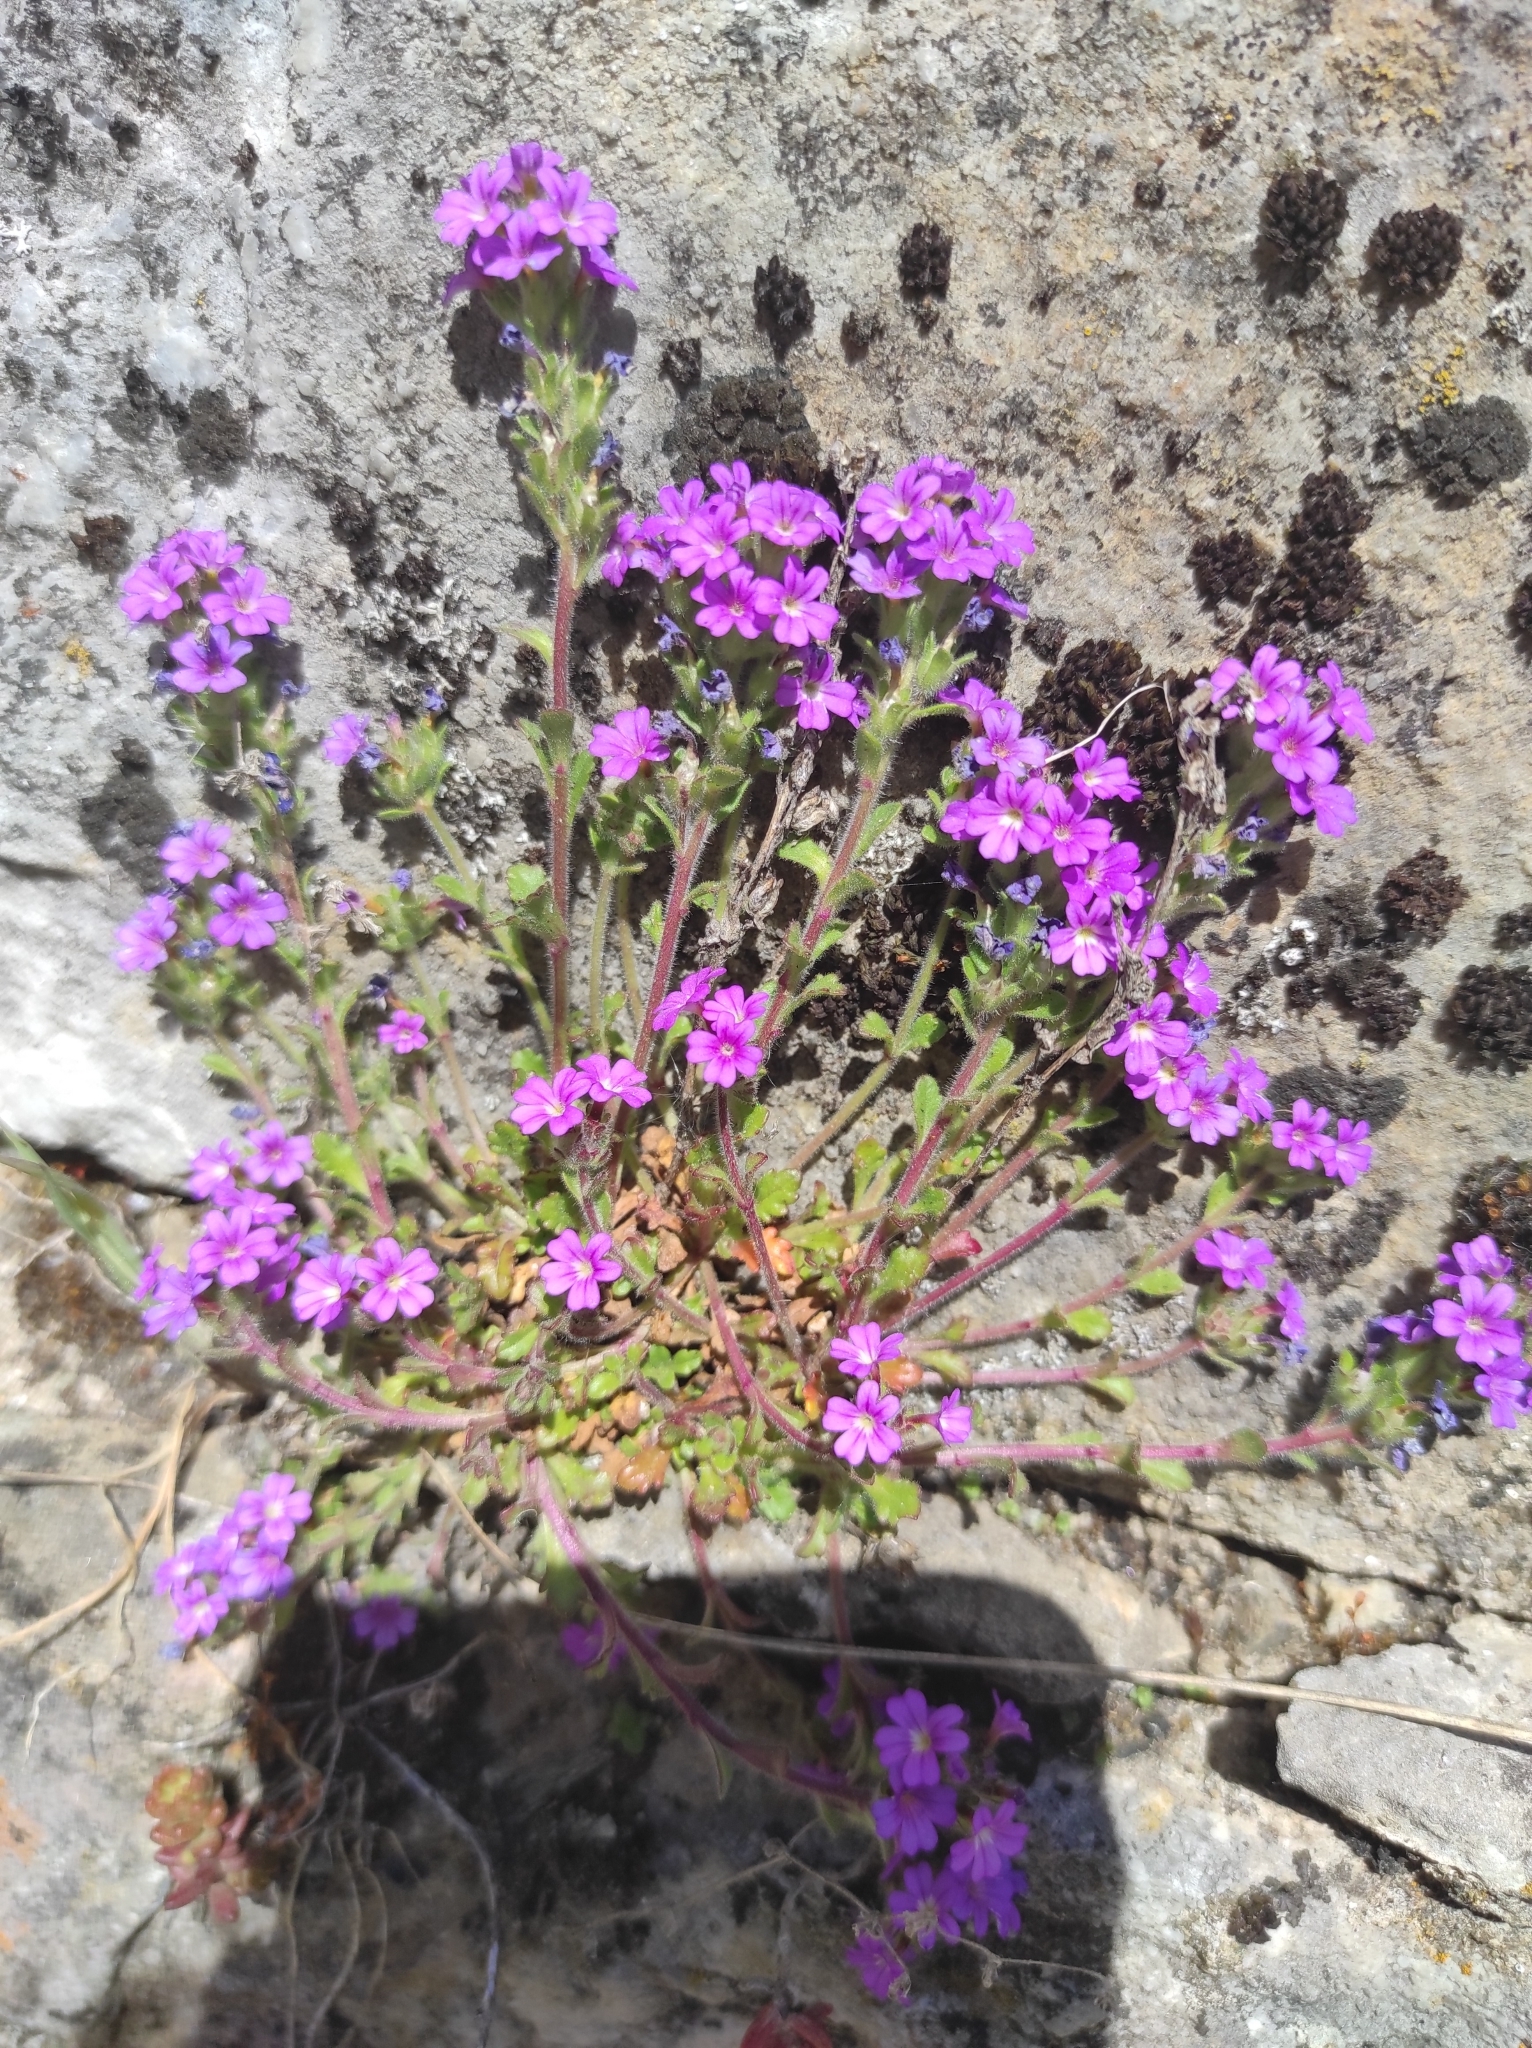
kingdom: Plantae
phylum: Tracheophyta
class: Magnoliopsida
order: Lamiales
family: Plantaginaceae
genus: Erinus
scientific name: Erinus alpinus
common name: Fairy foxglove
